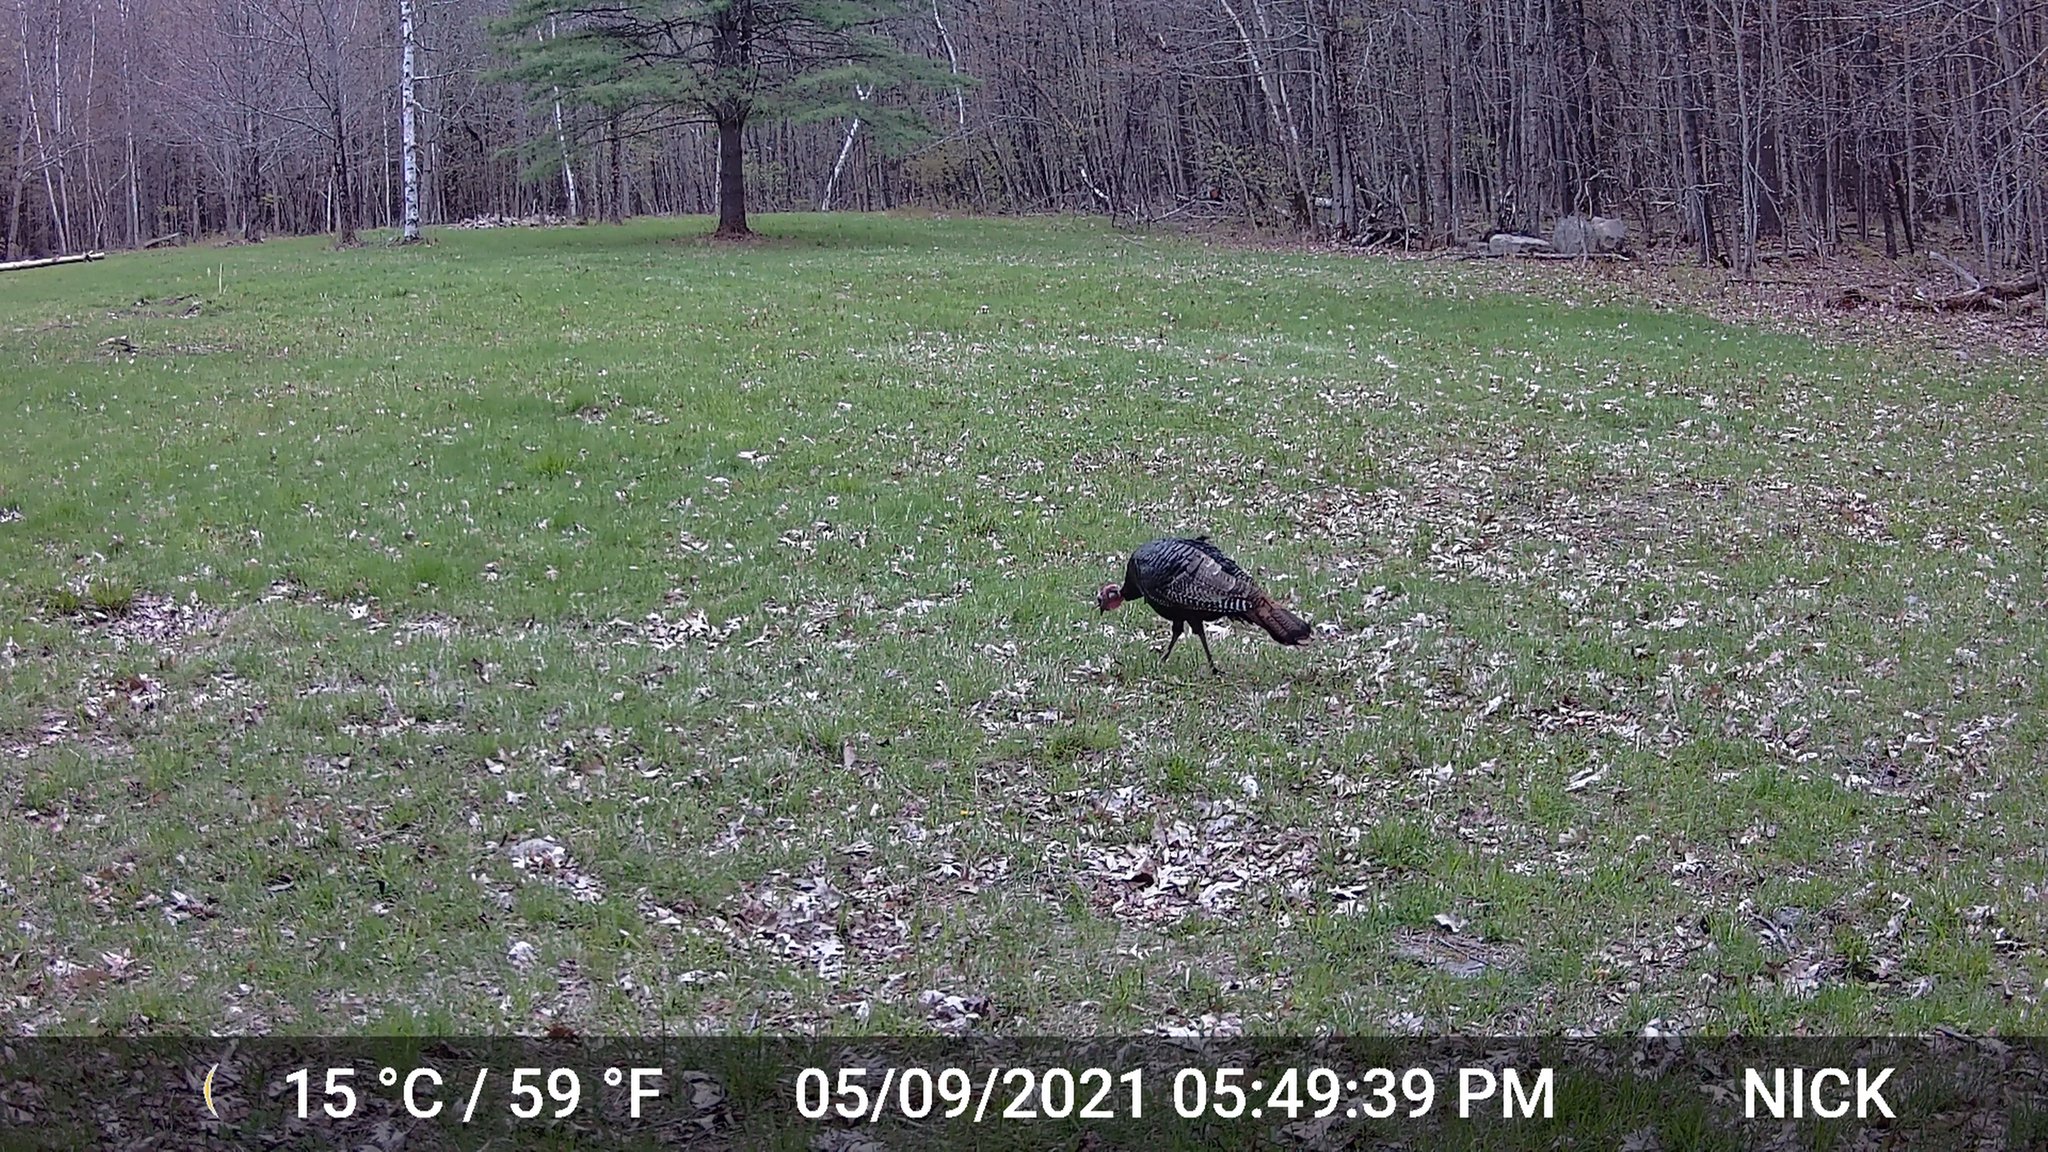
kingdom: Animalia
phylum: Chordata
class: Aves
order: Galliformes
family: Phasianidae
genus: Meleagris
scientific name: Meleagris gallopavo
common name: Wild turkey
